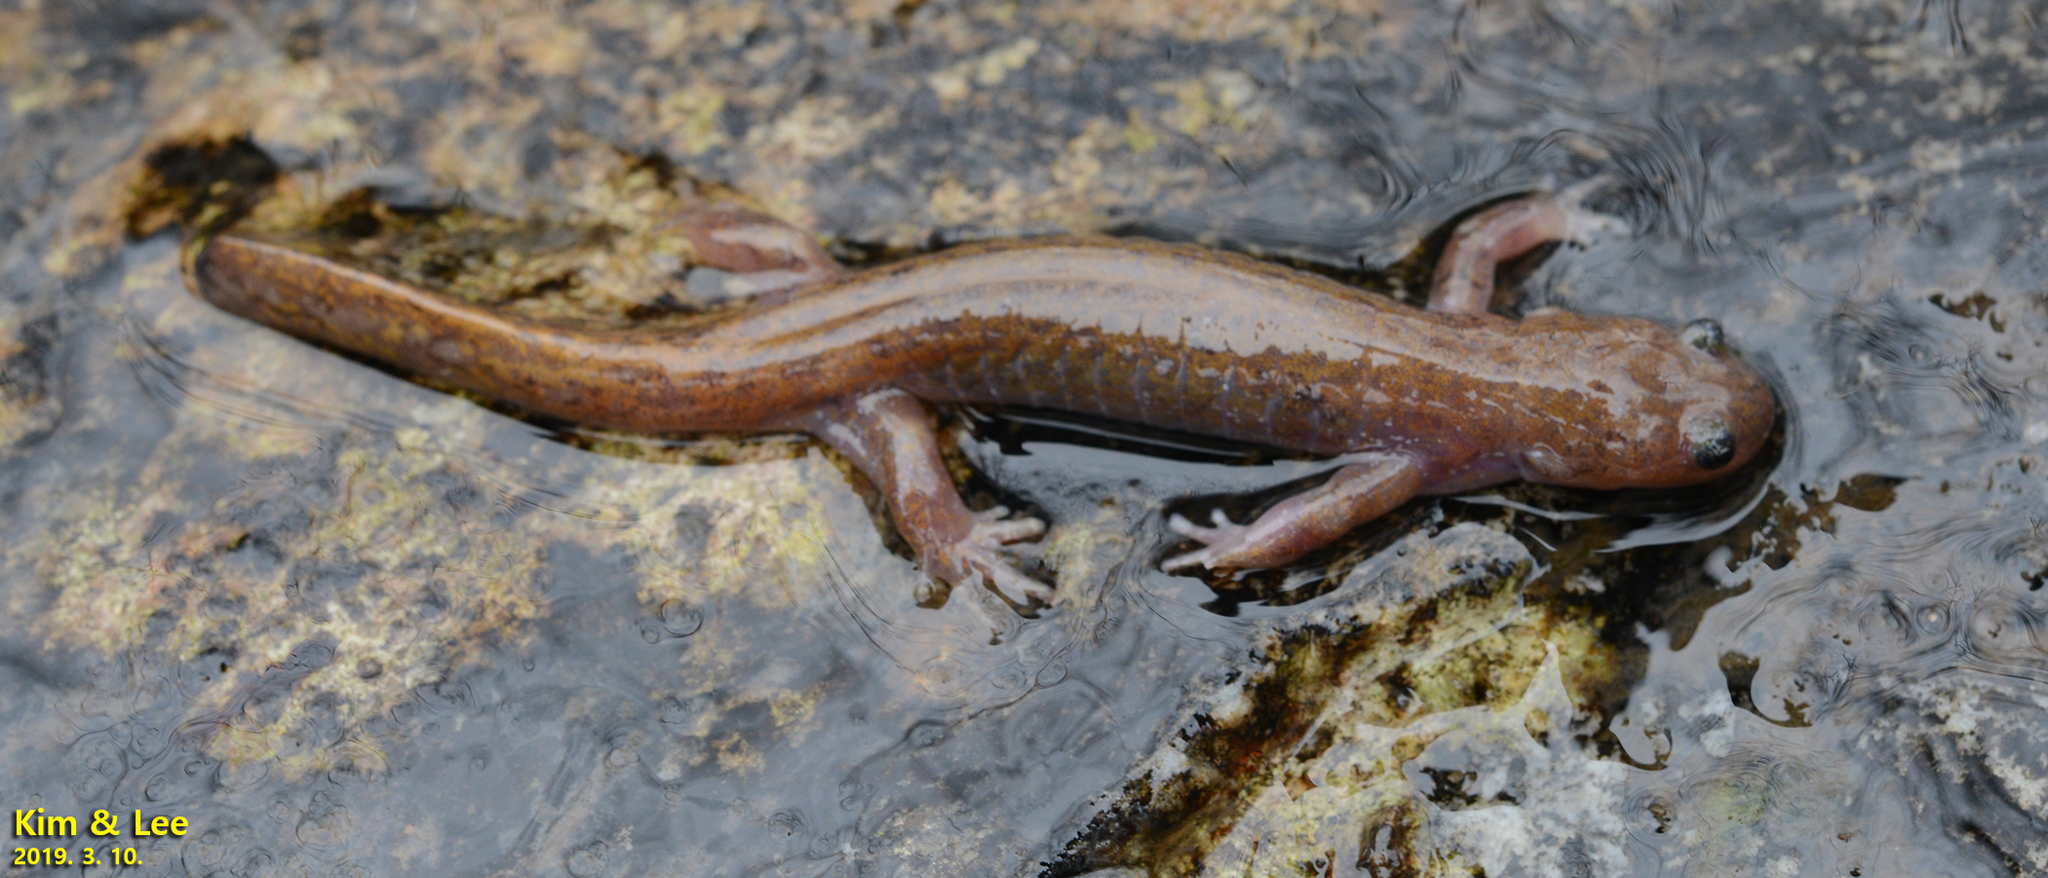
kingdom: Animalia
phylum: Chordata
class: Amphibia
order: Caudata
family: Hynobiidae
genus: Hynobius
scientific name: Hynobius geojeensis
